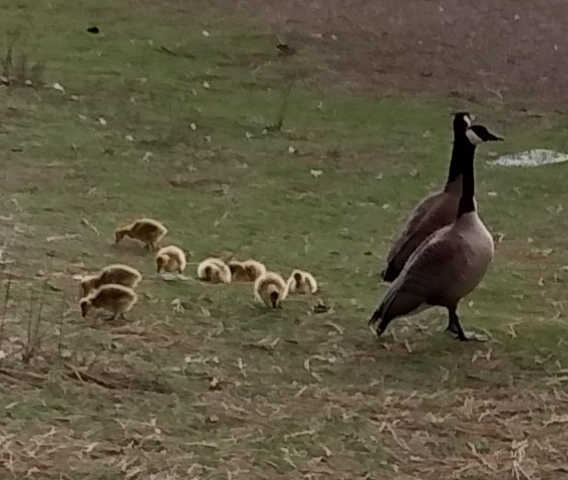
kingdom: Animalia
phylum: Chordata
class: Aves
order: Anseriformes
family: Anatidae
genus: Branta
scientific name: Branta canadensis
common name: Canada goose
